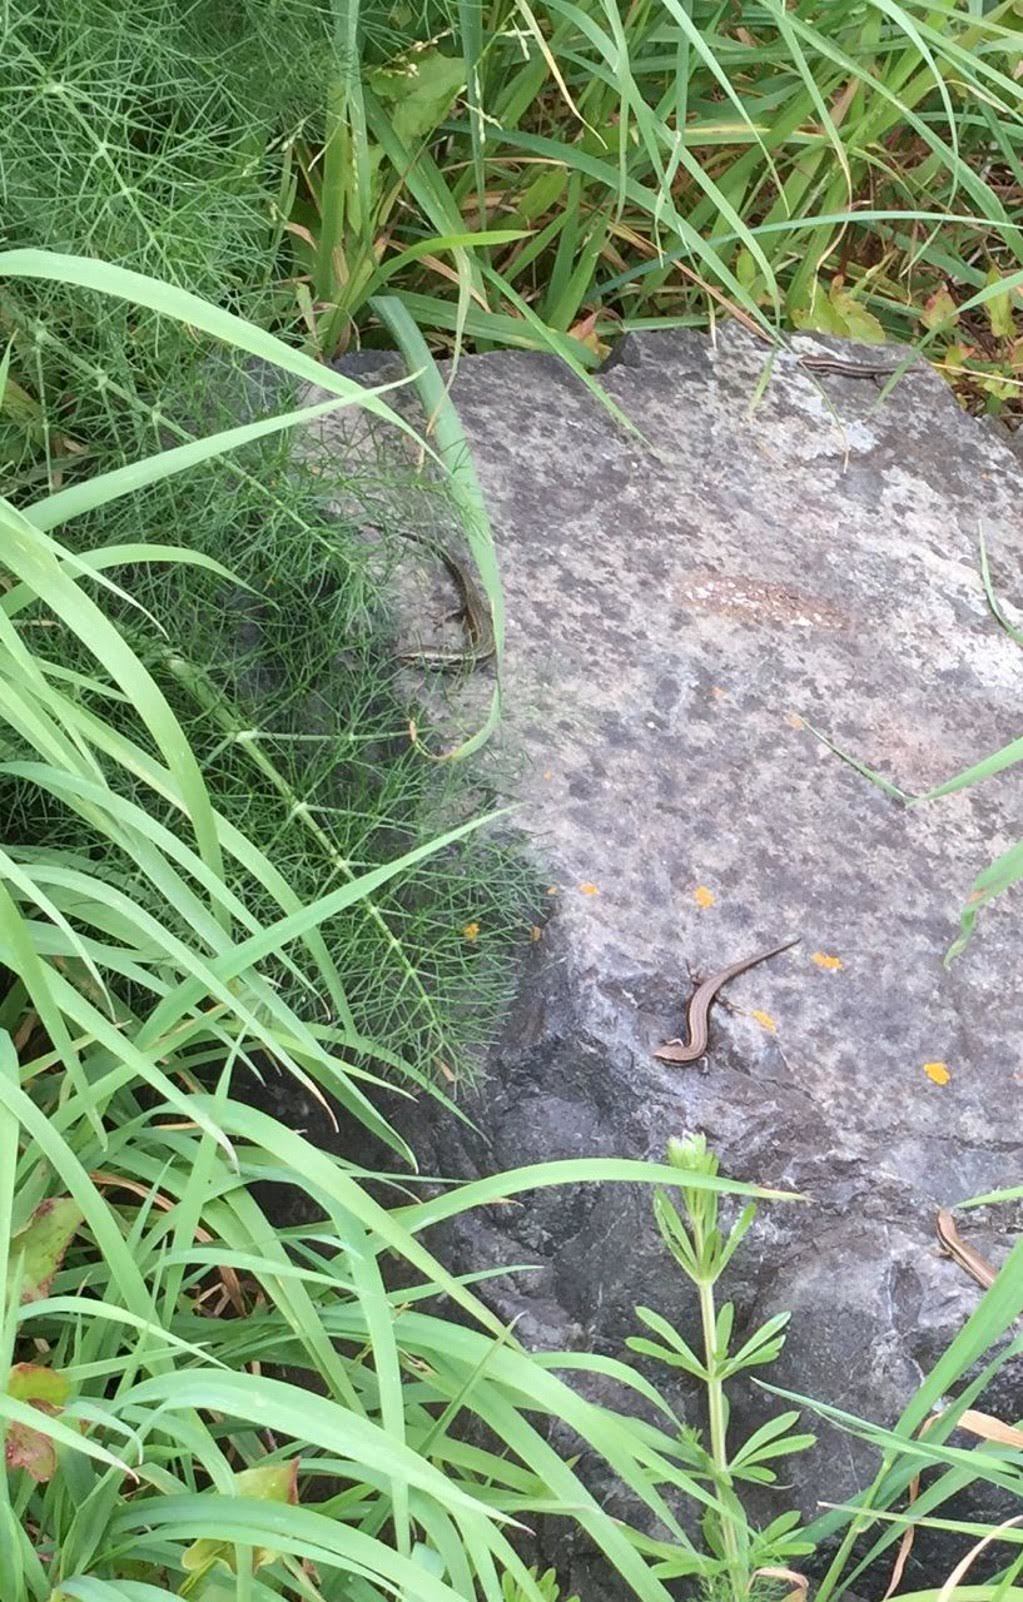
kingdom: Animalia
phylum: Chordata
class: Squamata
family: Scincidae
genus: Oligosoma
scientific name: Oligosoma polychroma
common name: Common new zealand skink
